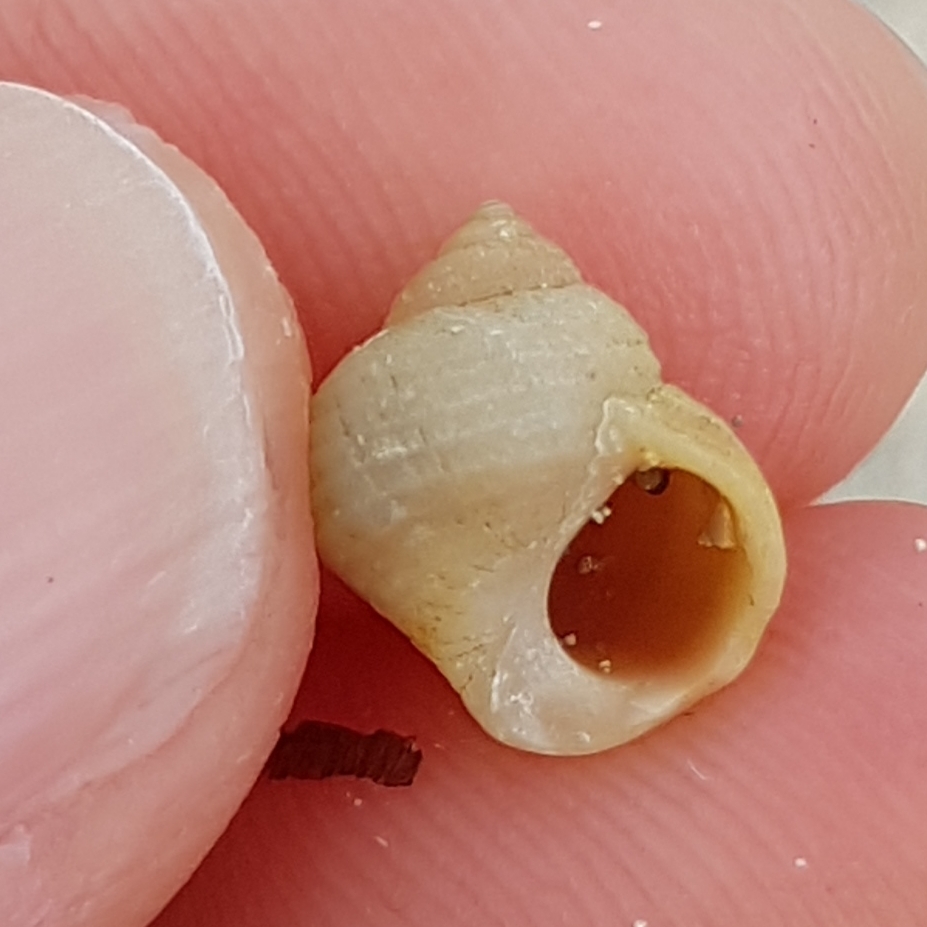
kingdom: Animalia
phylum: Mollusca
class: Gastropoda
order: Littorinimorpha
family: Littorinidae
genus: Littorina
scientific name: Littorina saxatilis
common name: Black-lined periwinkle
